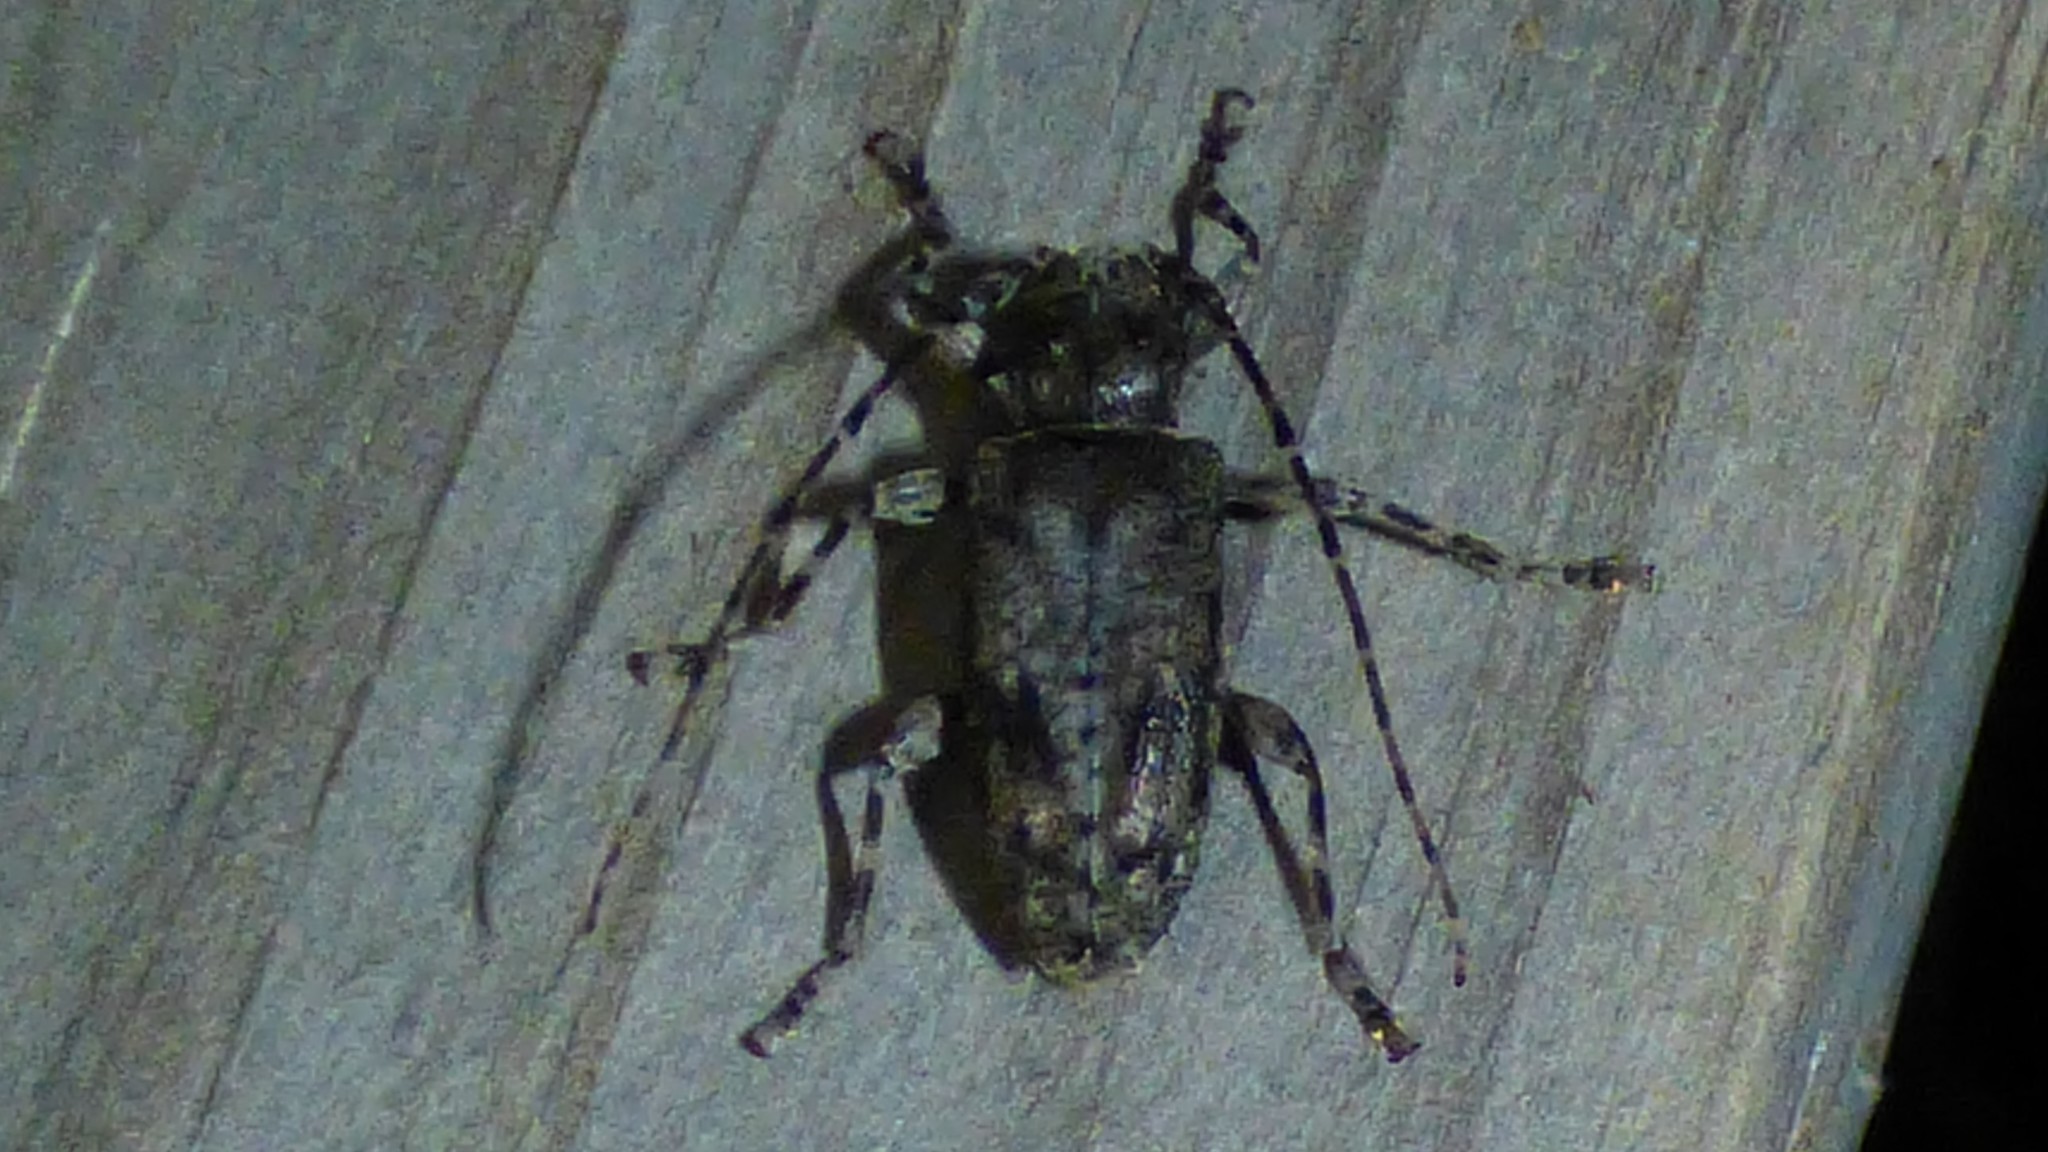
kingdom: Animalia
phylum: Arthropoda
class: Insecta
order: Coleoptera
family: Cerambycidae
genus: Aegomorphus
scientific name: Aegomorphus modestus
